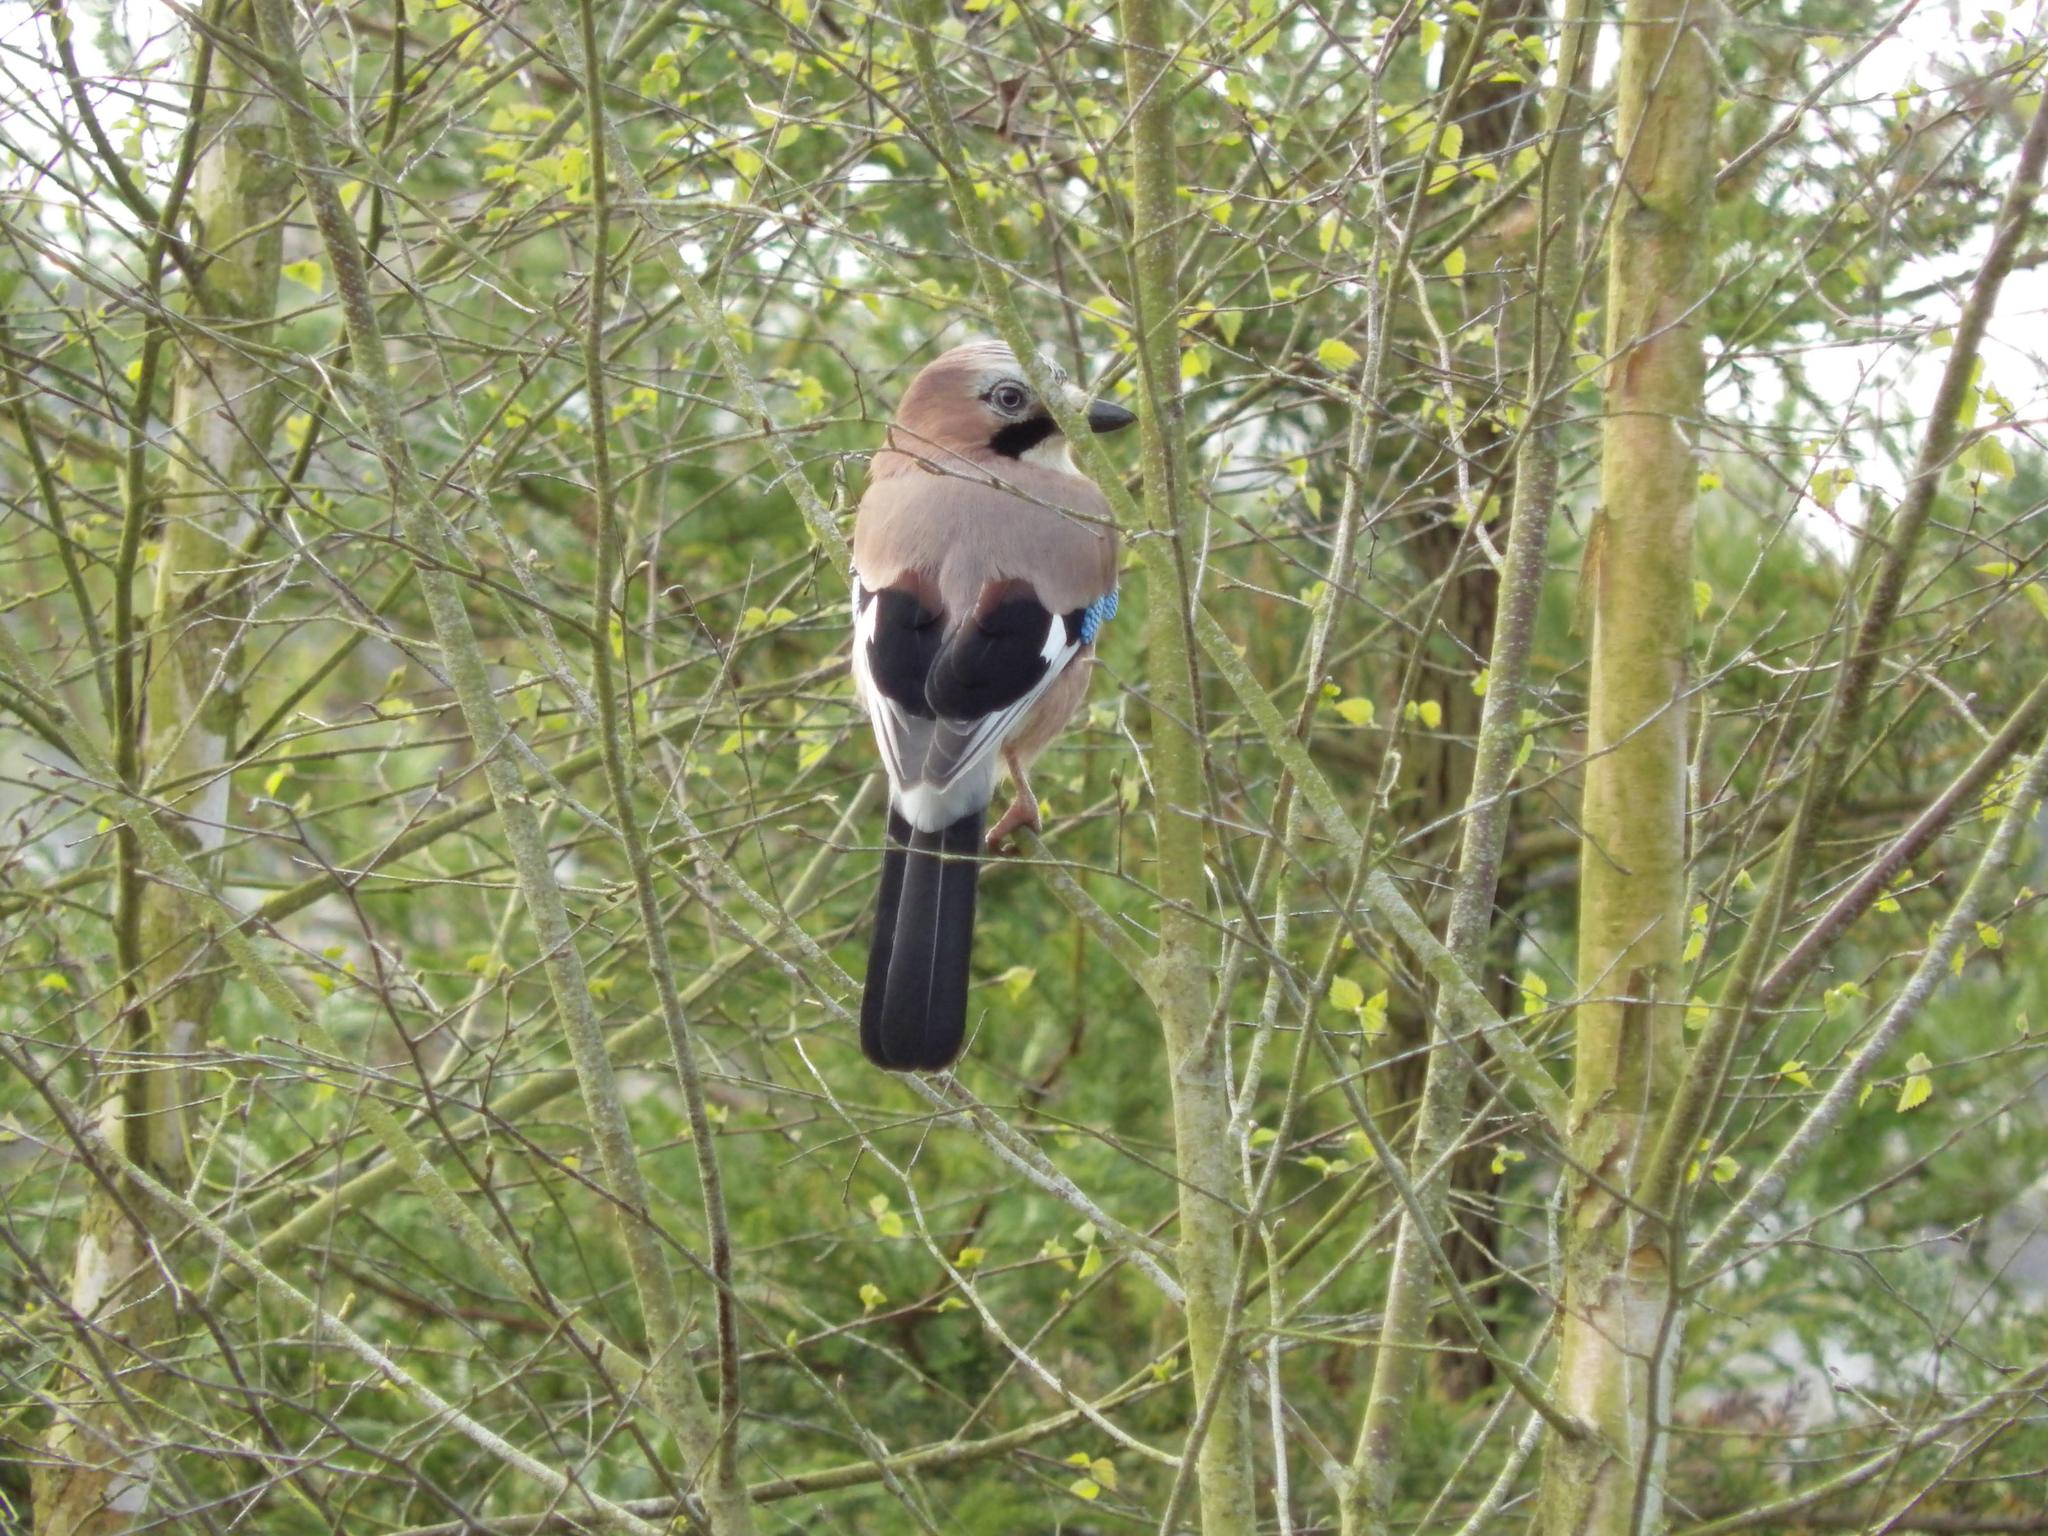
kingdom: Animalia
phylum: Chordata
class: Aves
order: Passeriformes
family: Corvidae
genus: Garrulus
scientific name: Garrulus glandarius
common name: Eurasian jay
